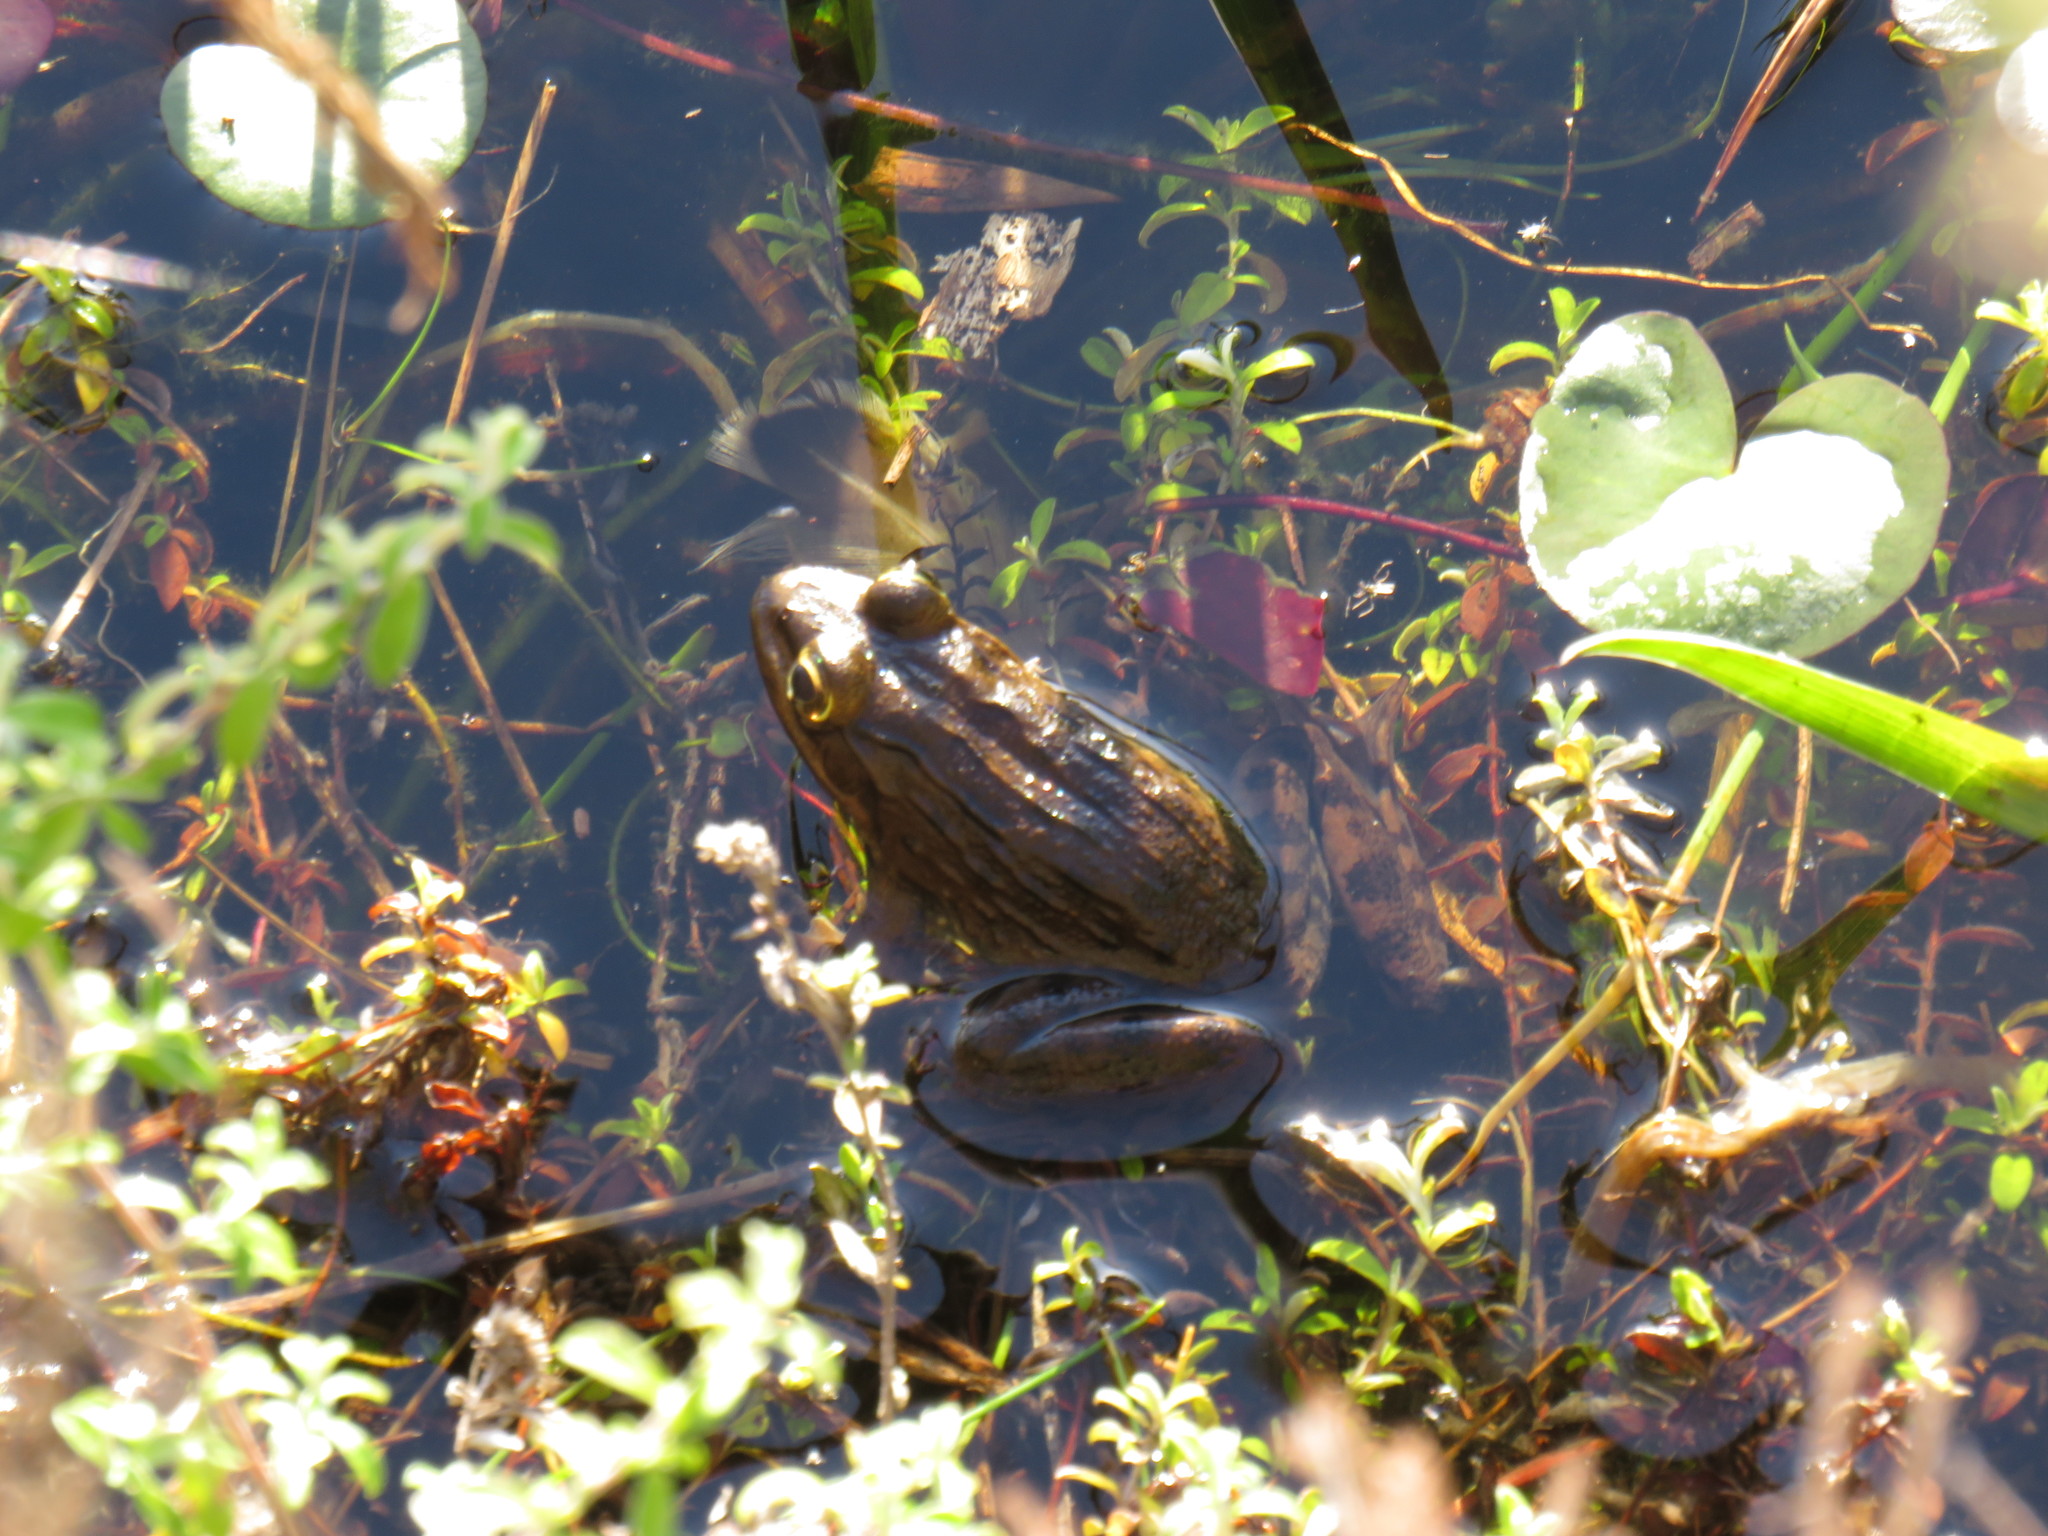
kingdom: Animalia
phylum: Chordata
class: Amphibia
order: Anura
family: Pyxicephalidae
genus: Amietia
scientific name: Amietia fuscigula
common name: Cape rana
